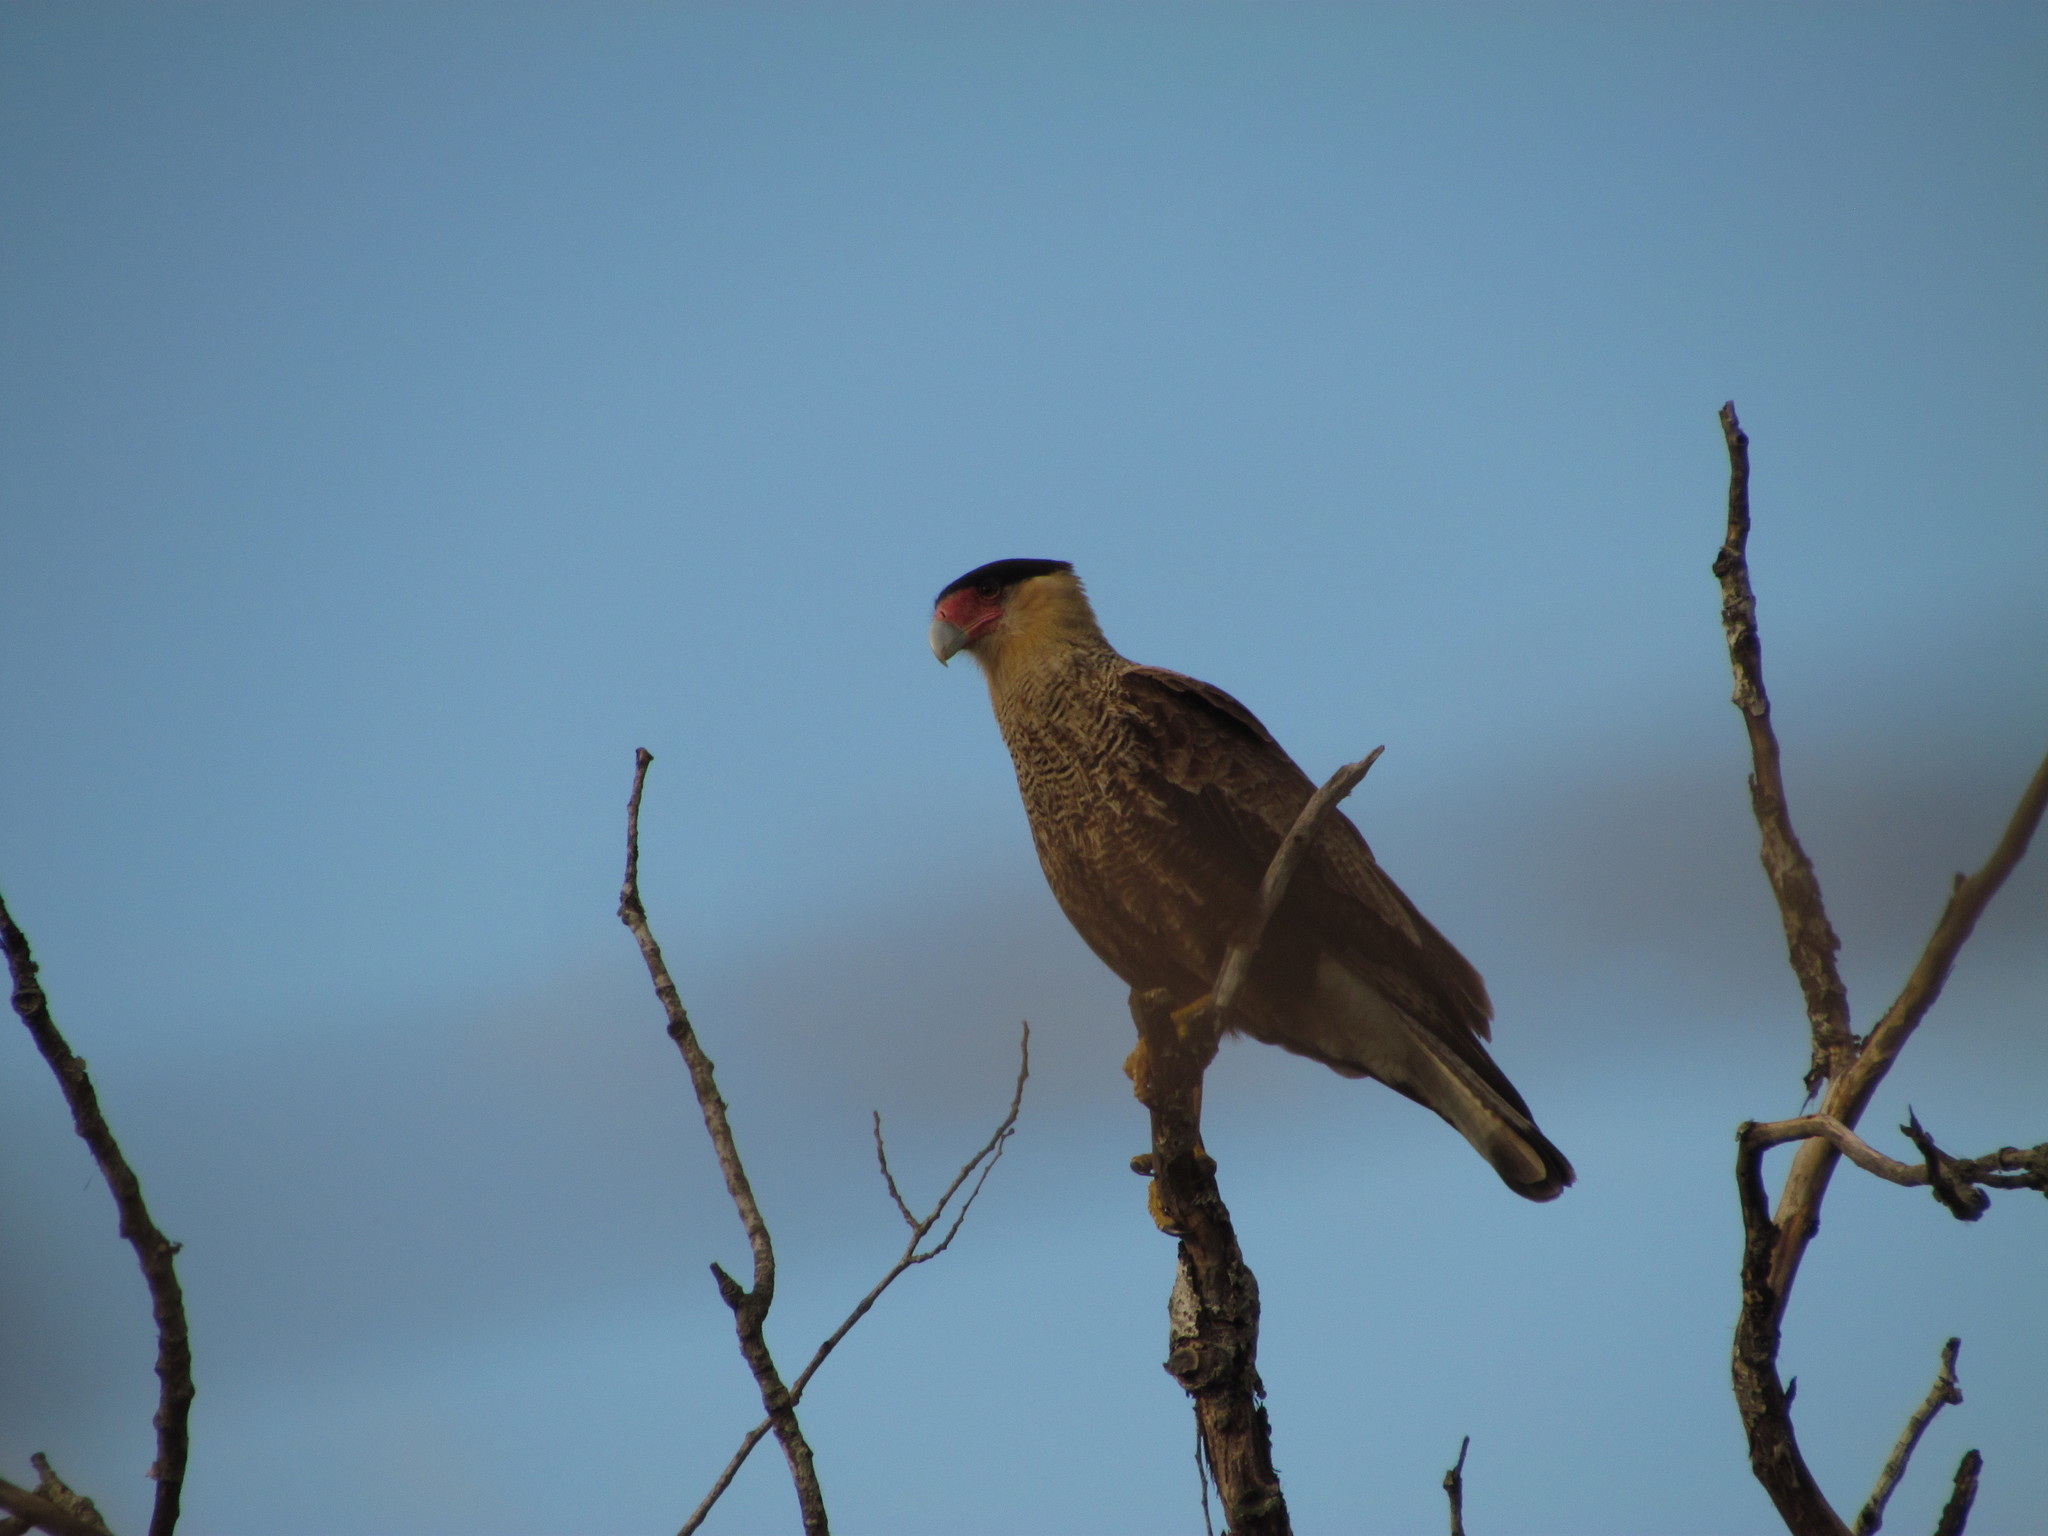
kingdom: Animalia
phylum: Chordata
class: Aves
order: Falconiformes
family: Falconidae
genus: Caracara
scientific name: Caracara plancus
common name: Southern caracara
